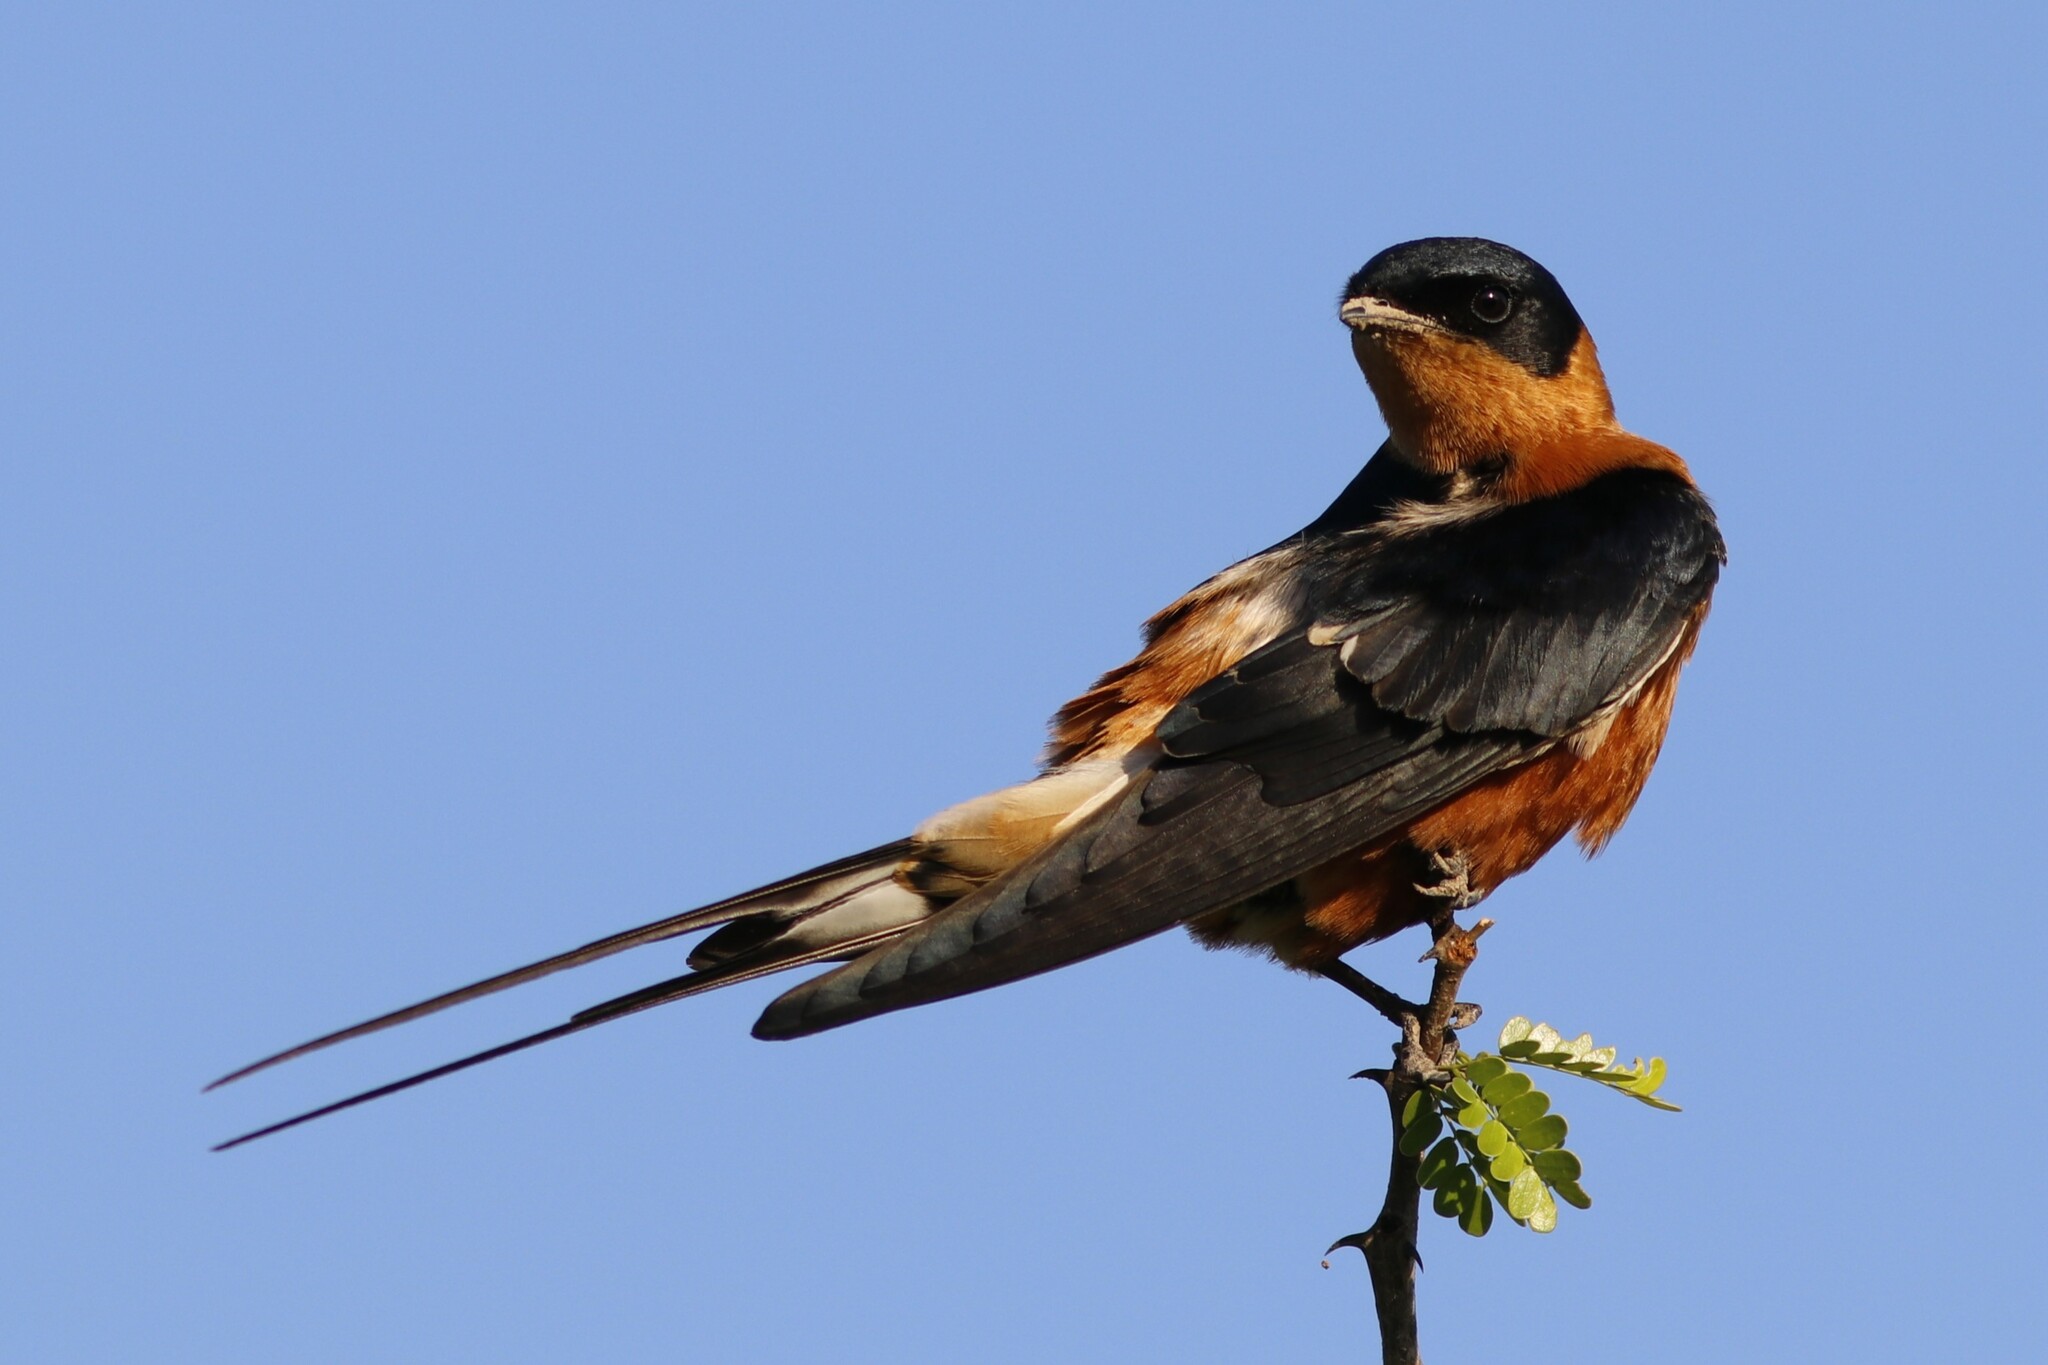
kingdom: Animalia
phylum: Chordata
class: Aves
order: Passeriformes
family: Hirundinidae
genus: Cecropis
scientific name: Cecropis semirufa
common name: Red-breasted swallow
